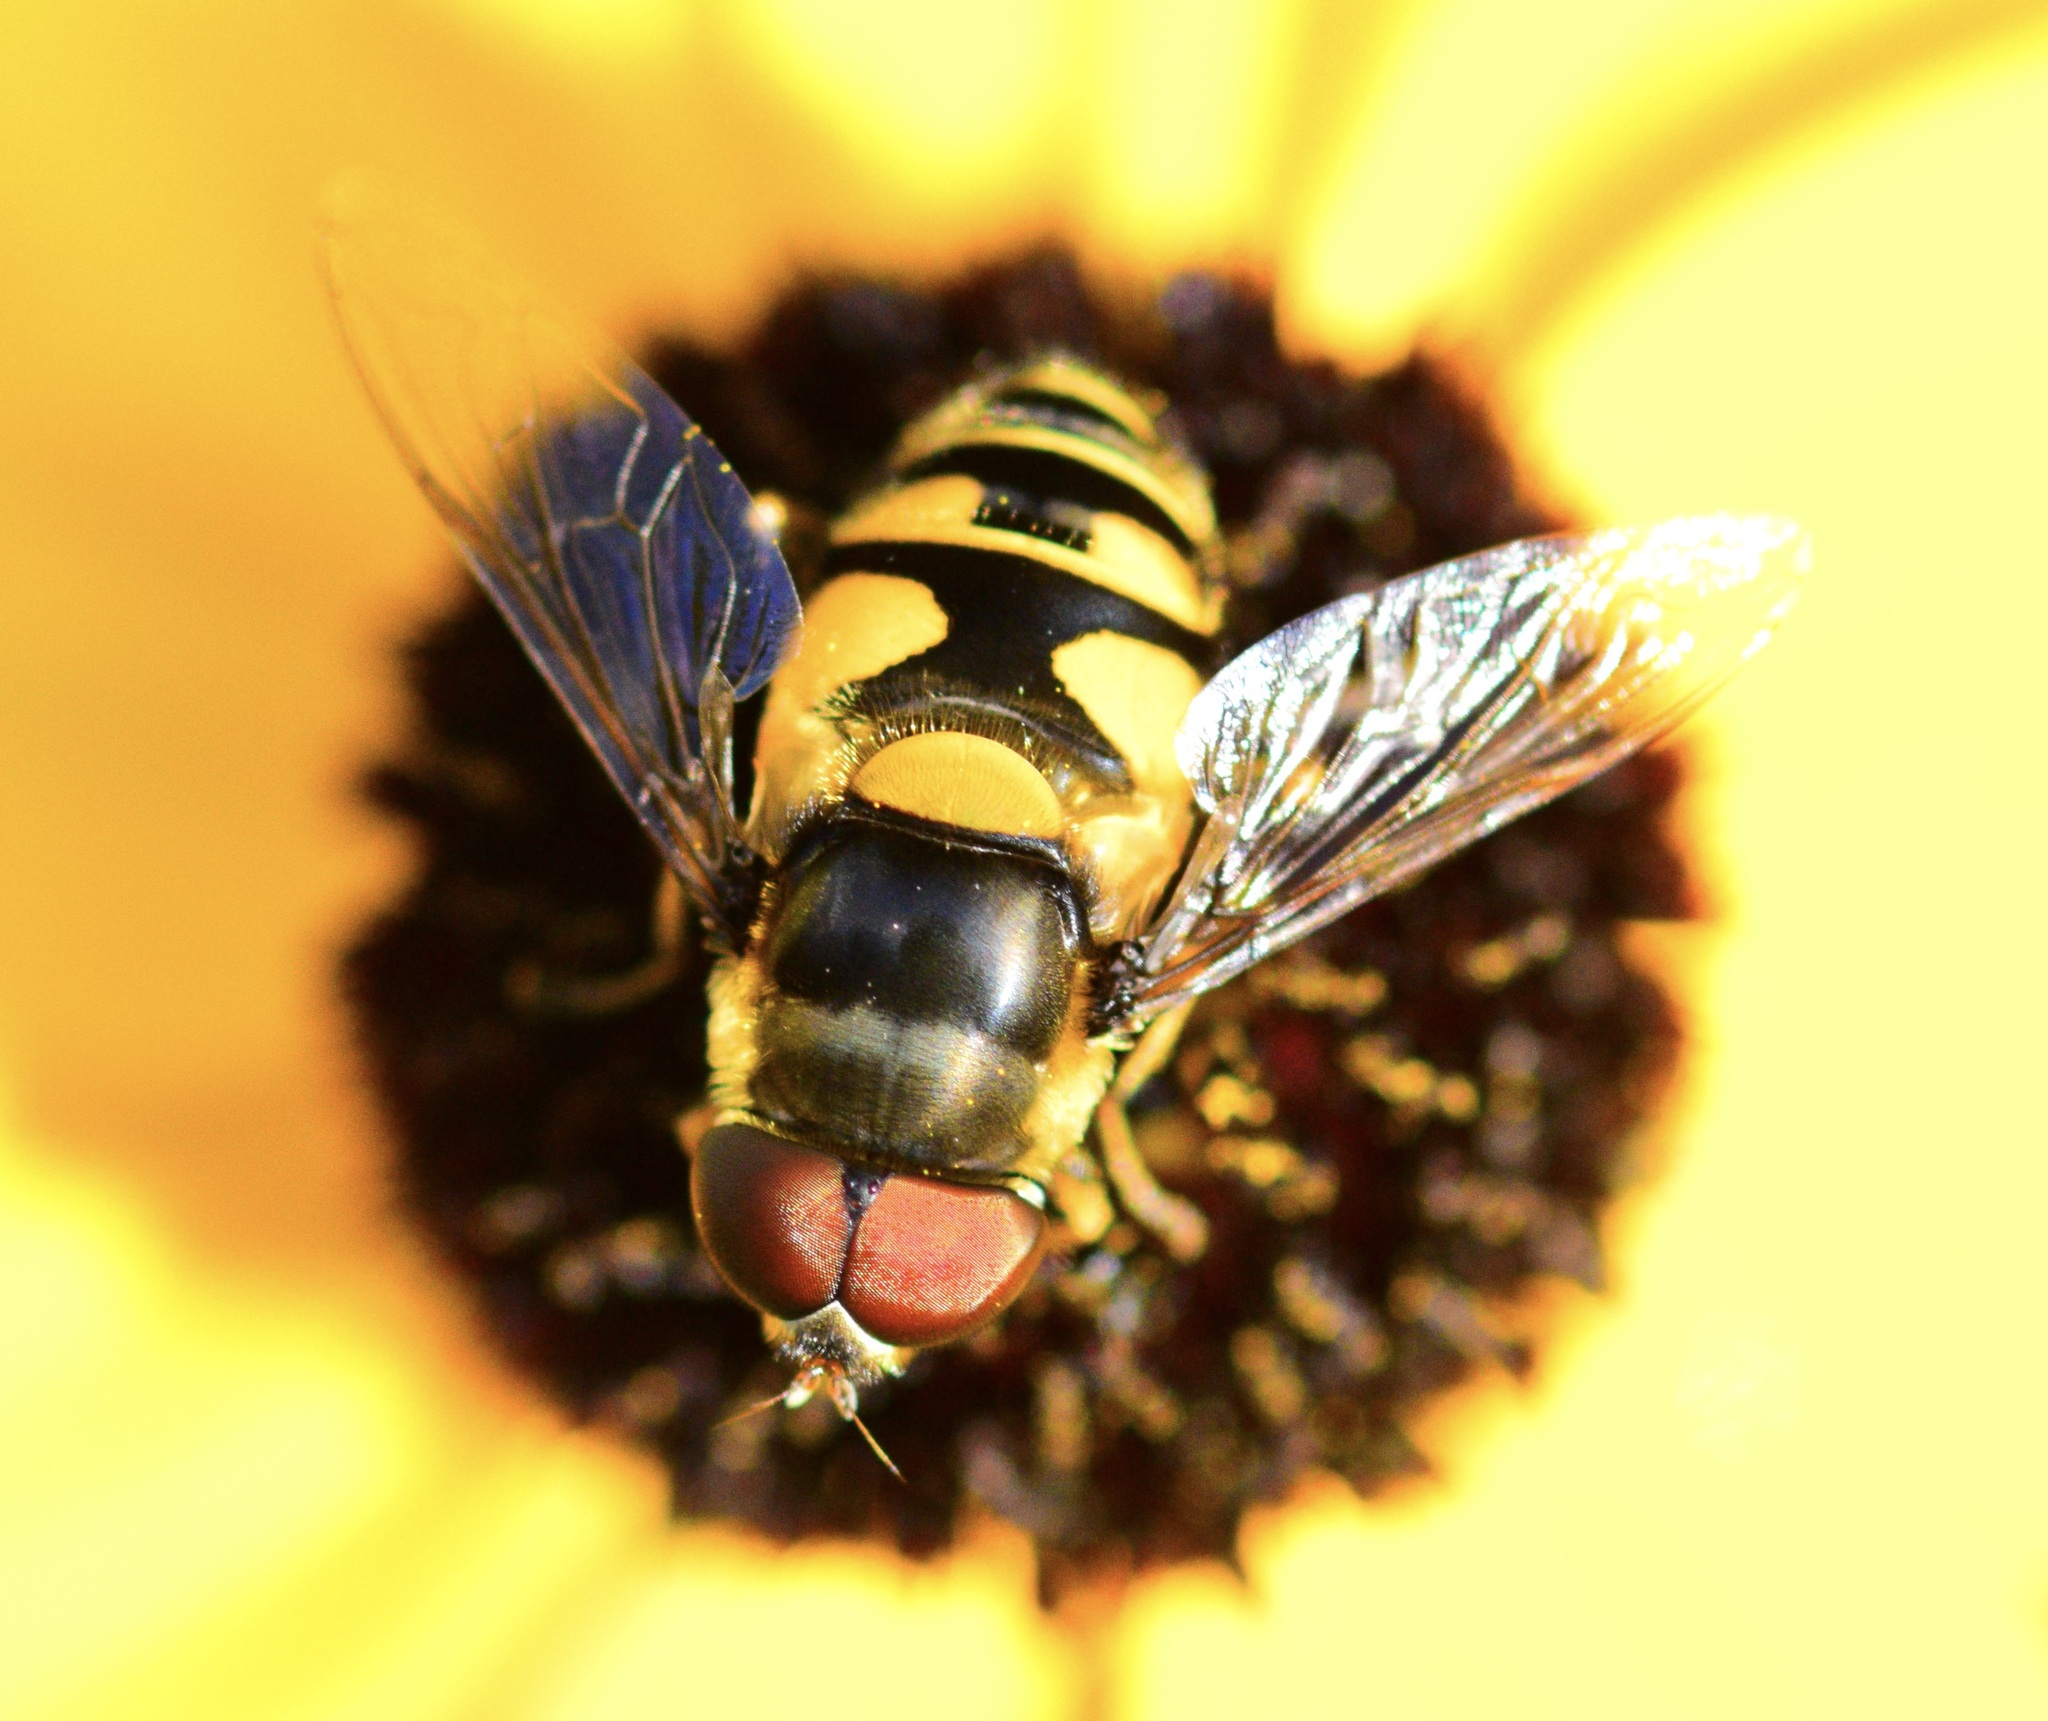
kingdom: Animalia
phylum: Arthropoda
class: Insecta
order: Diptera
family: Syrphidae
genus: Eristalis
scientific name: Eristalis transversa
